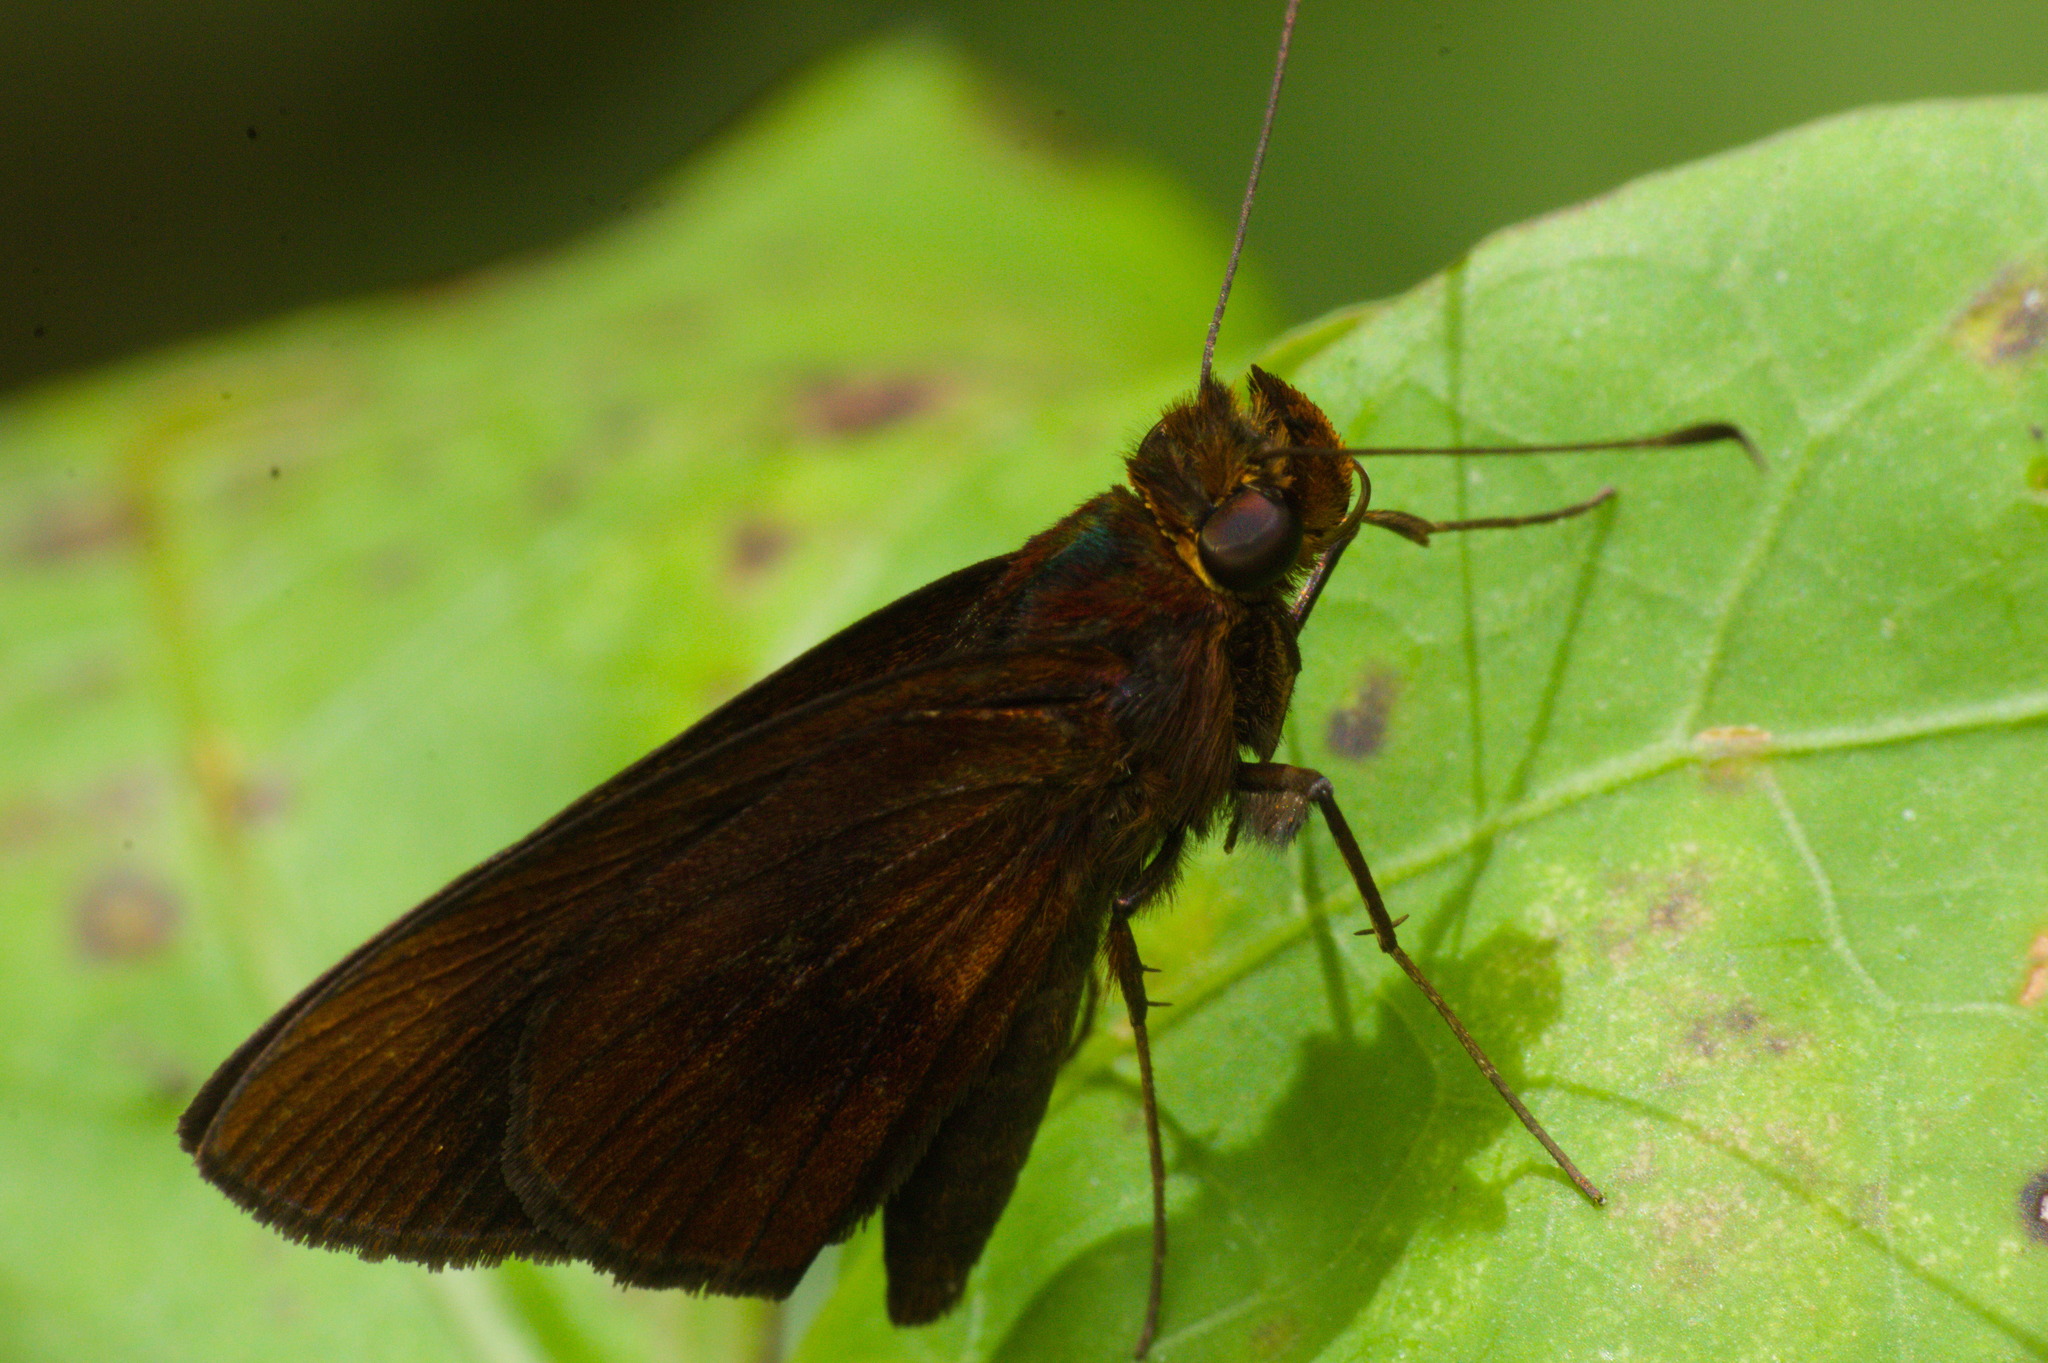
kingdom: Animalia
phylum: Arthropoda
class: Insecta
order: Lepidoptera
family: Hesperiidae
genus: Miltomiges
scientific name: Miltomiges cinnamomea
